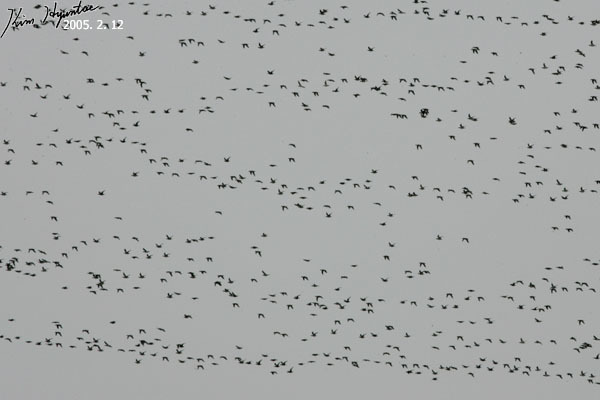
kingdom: Animalia
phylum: Chordata
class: Aves
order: Anseriformes
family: Anatidae
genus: Sibirionetta
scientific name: Sibirionetta formosa
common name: Baikal teal
